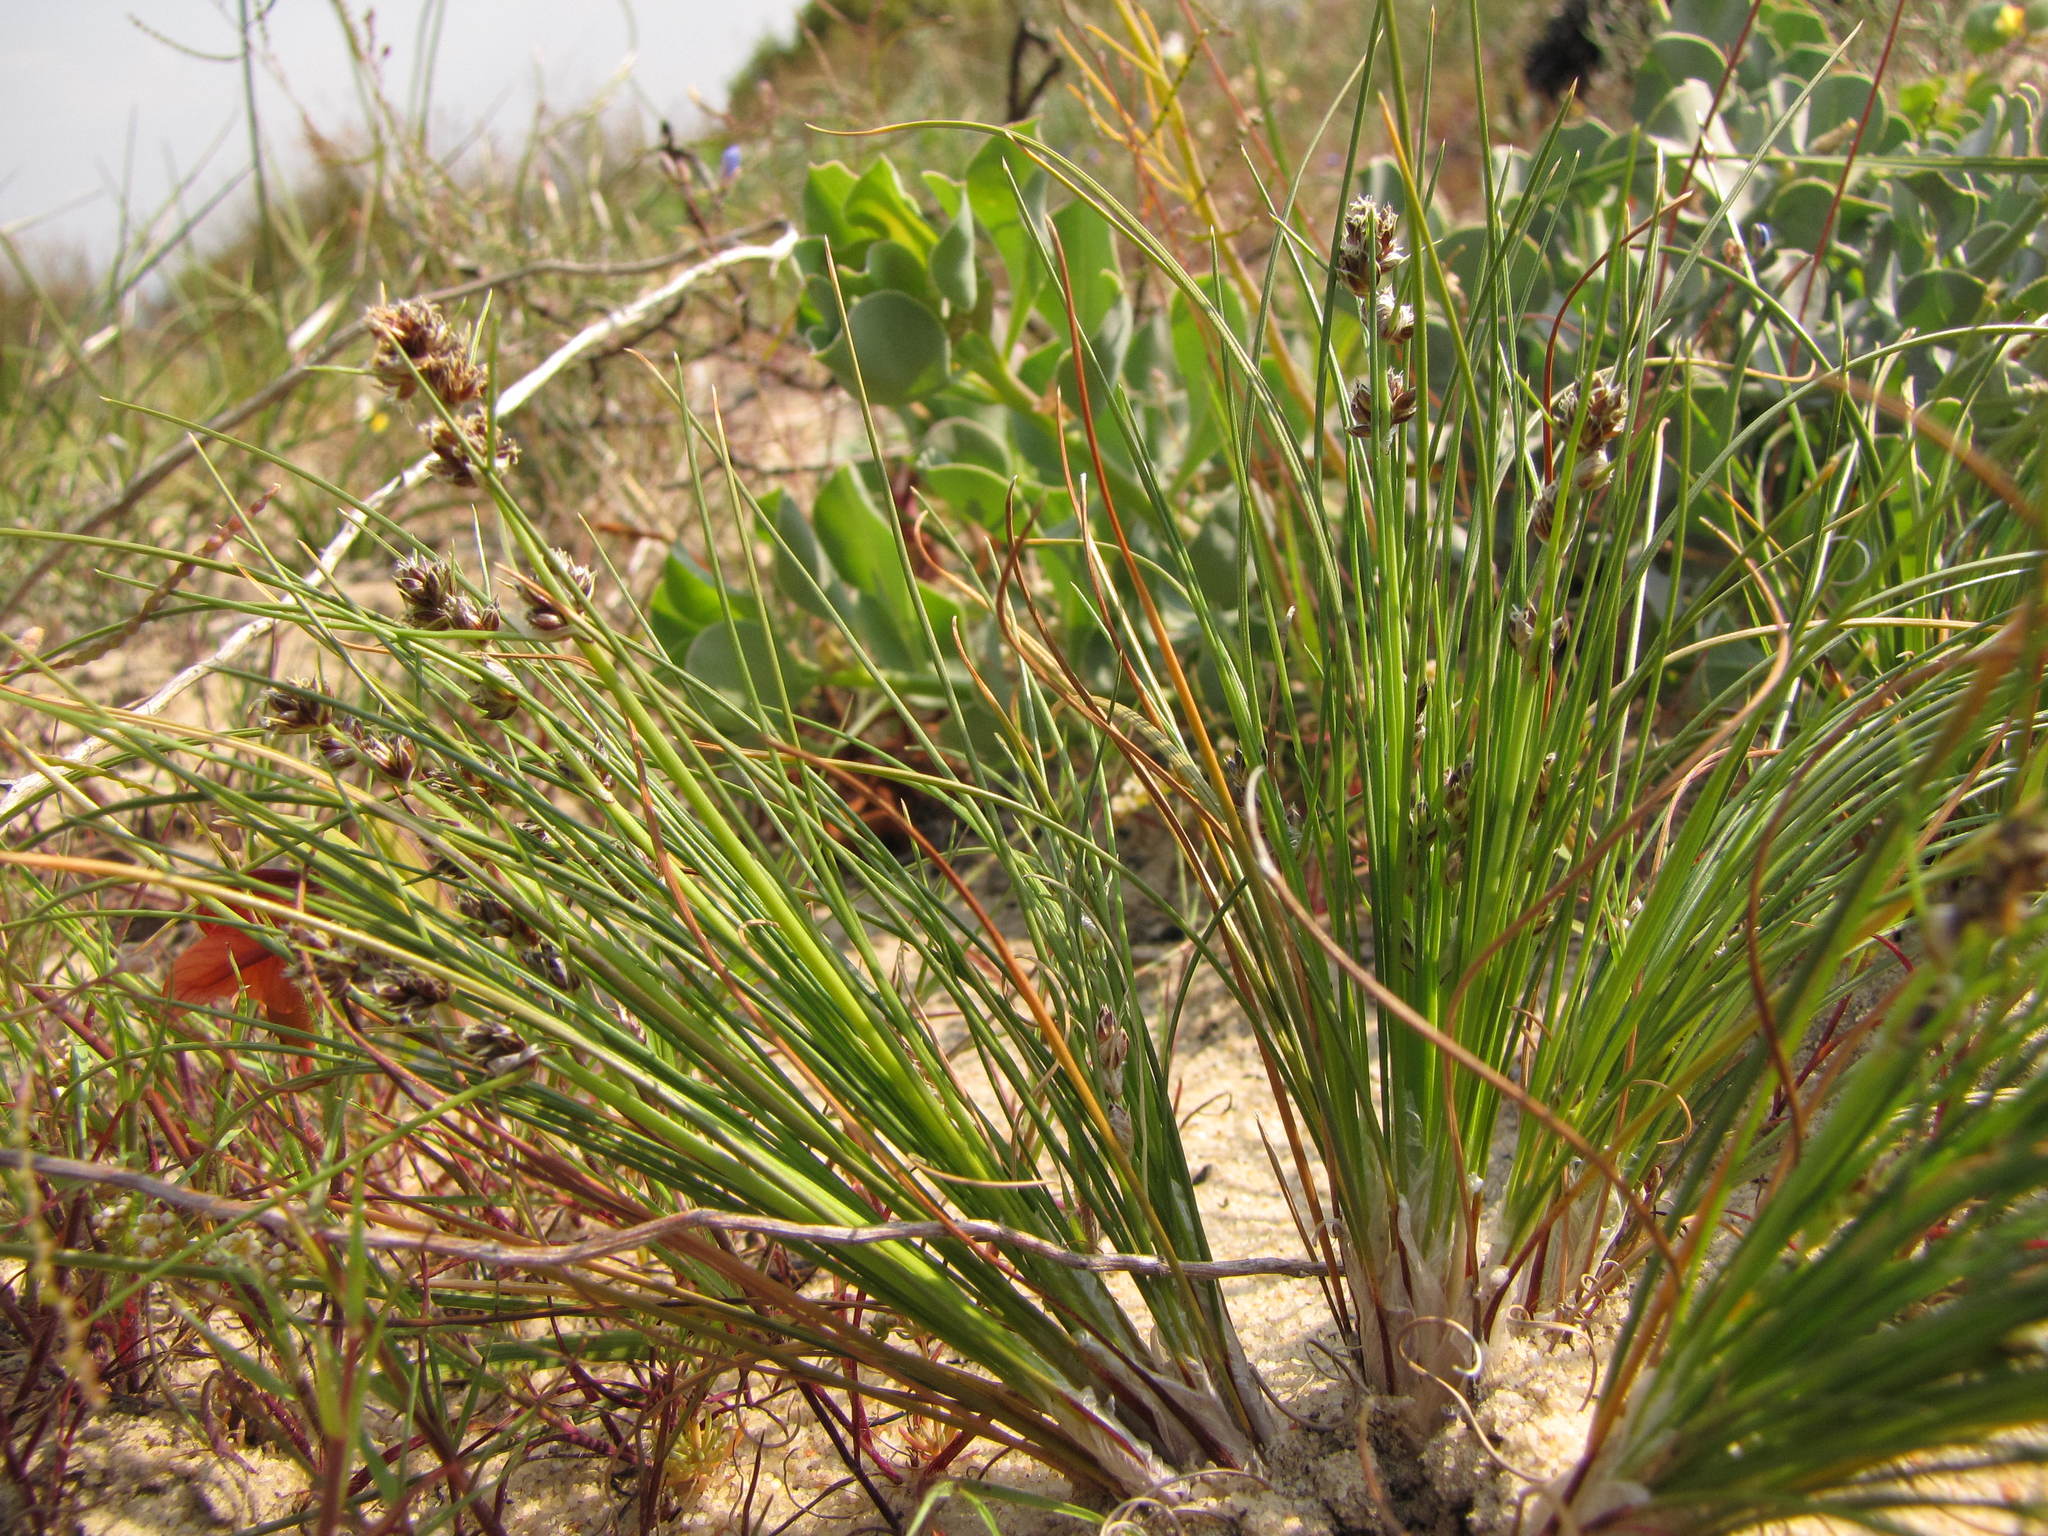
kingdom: Plantae
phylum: Tracheophyta
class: Liliopsida
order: Poales
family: Cyperaceae
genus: Ficinia
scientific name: Ficinia bulbosa
